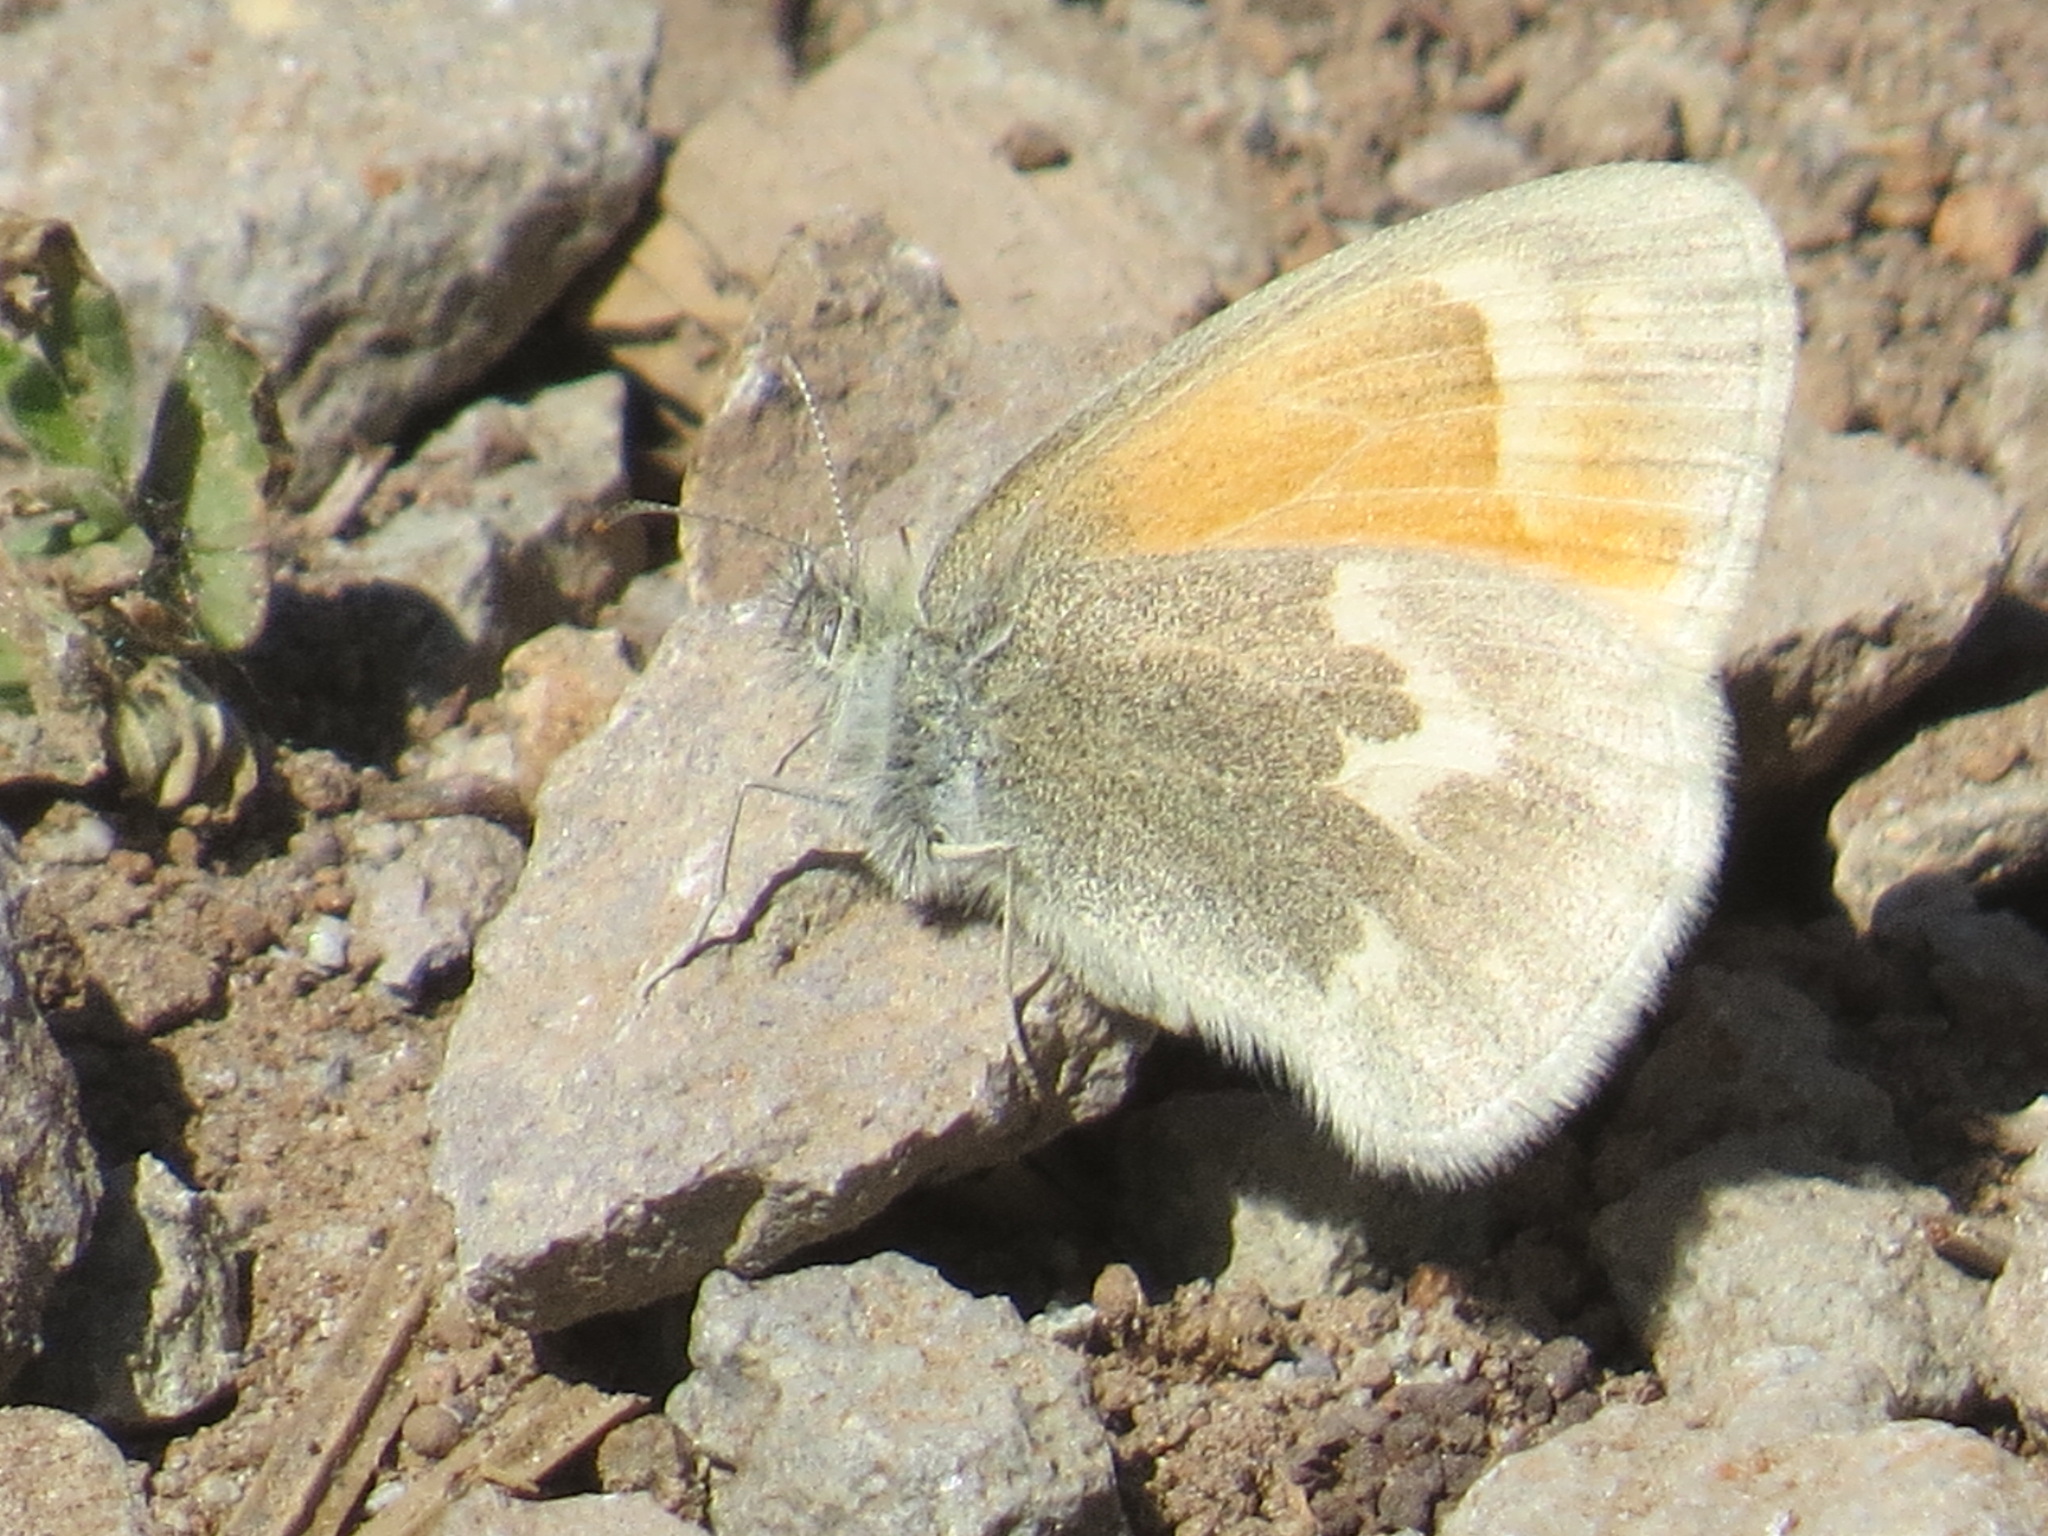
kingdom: Animalia
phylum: Arthropoda
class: Insecta
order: Lepidoptera
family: Nymphalidae
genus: Coenonympha
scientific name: Coenonympha california
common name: Common ringlet
